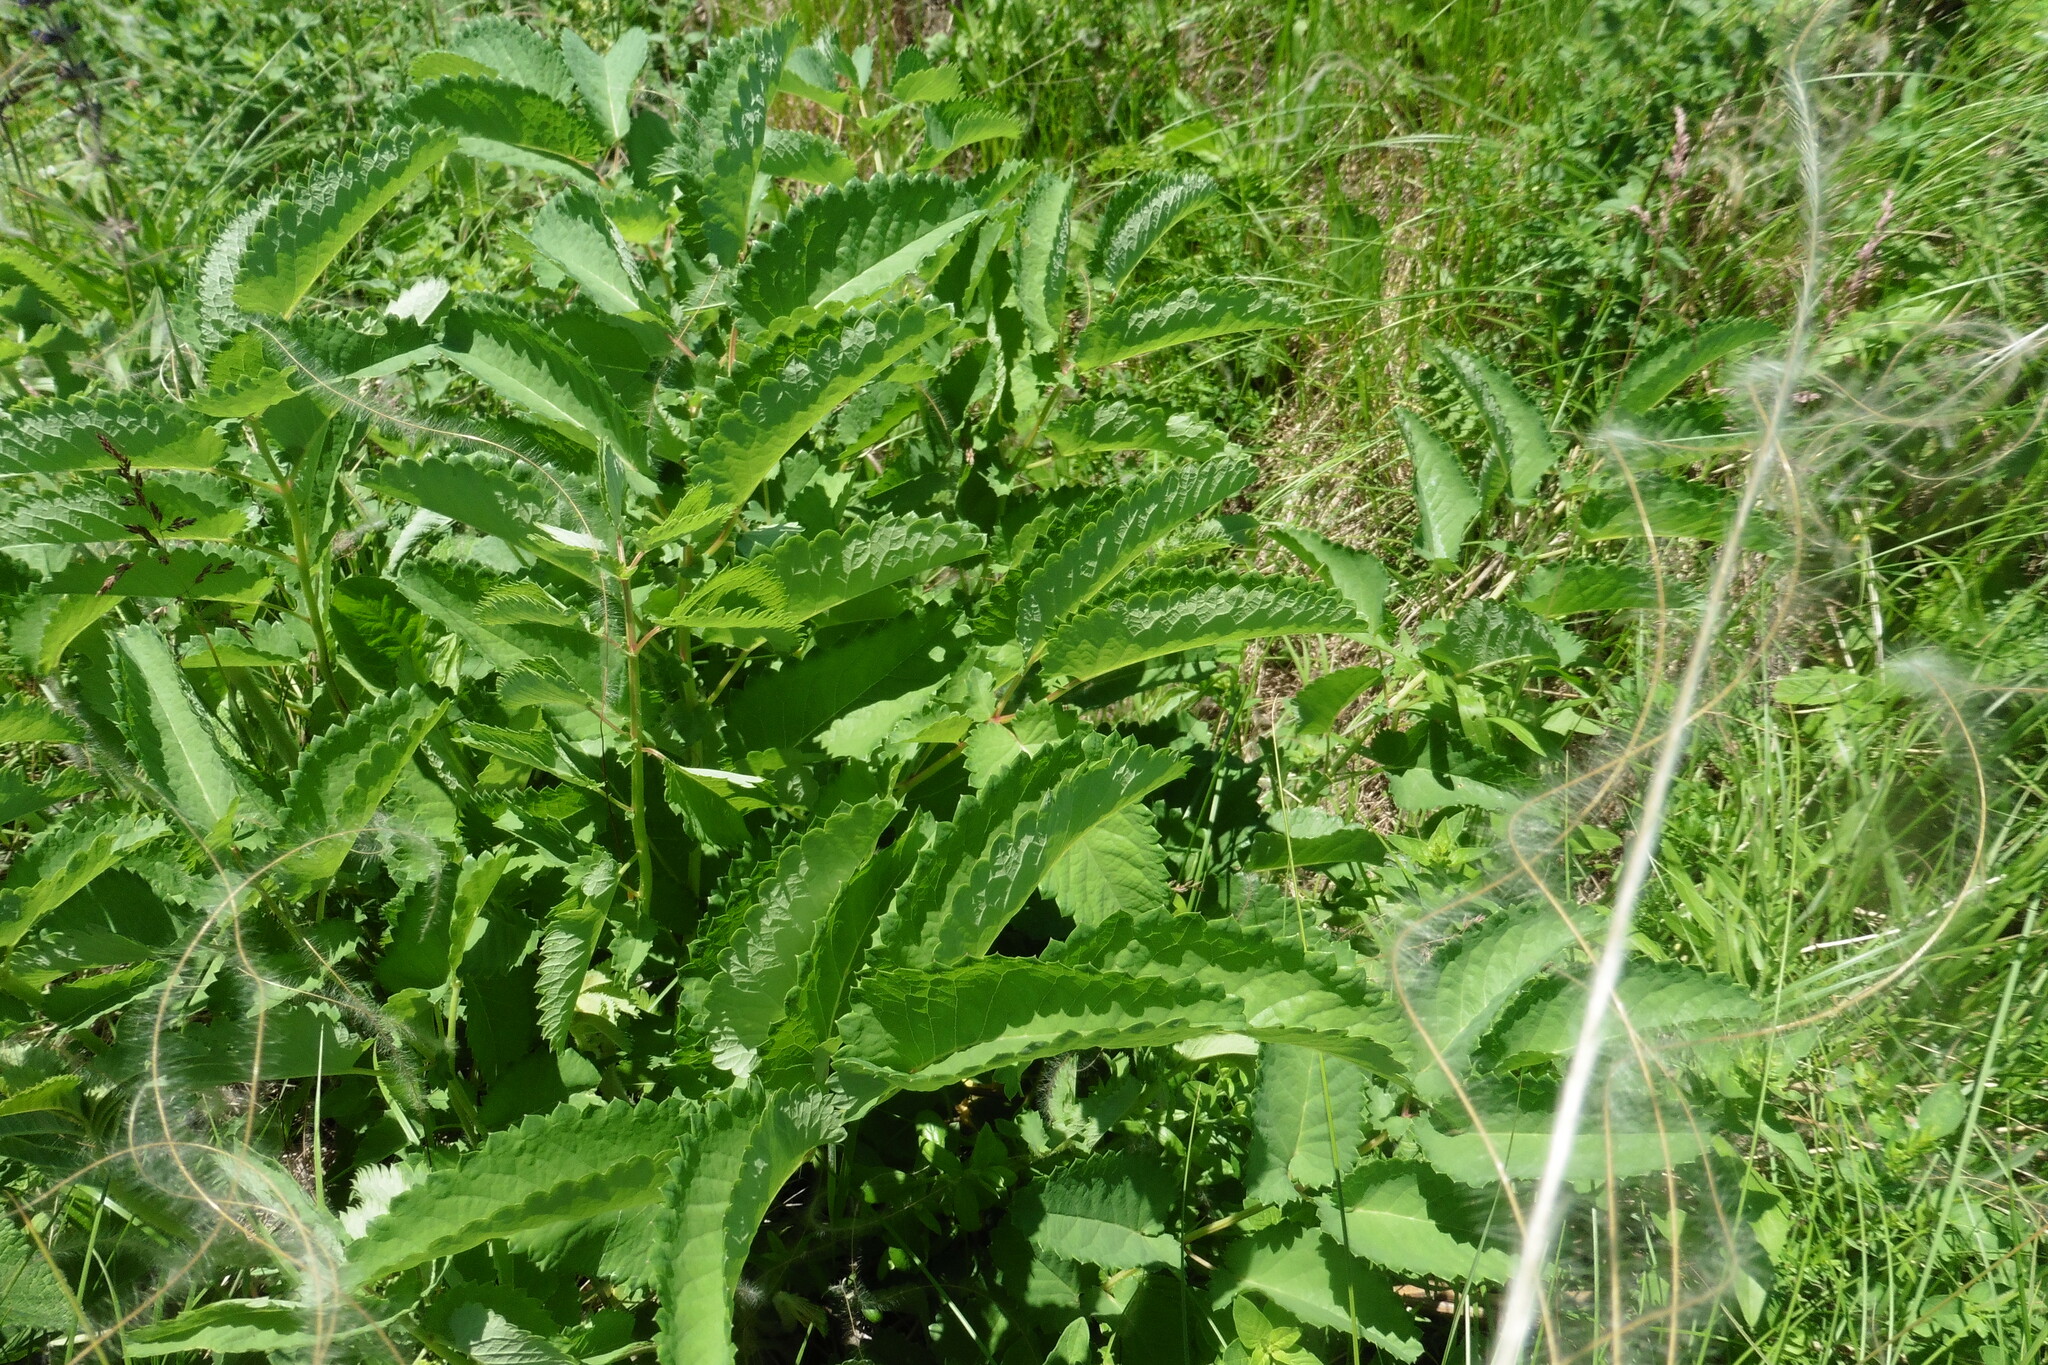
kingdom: Plantae
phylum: Tracheophyta
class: Magnoliopsida
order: Rosales
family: Rosaceae
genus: Sanguisorba
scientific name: Sanguisorba officinalis
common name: Great burnet
